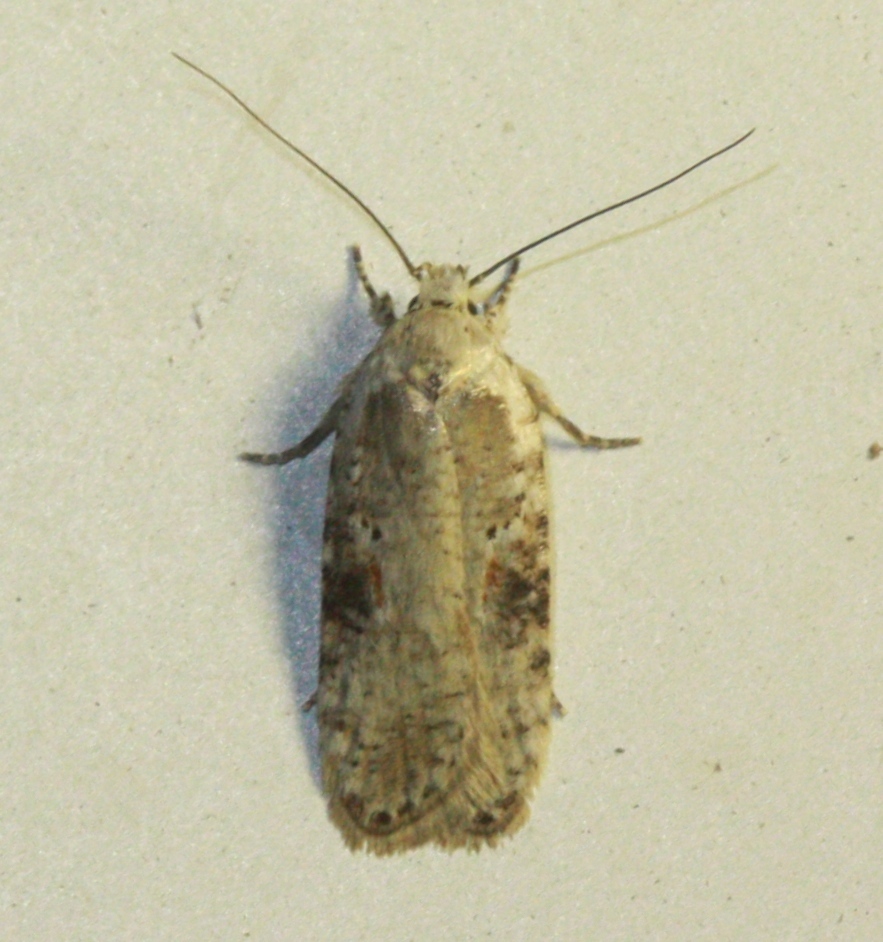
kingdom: Animalia
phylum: Arthropoda
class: Insecta
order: Lepidoptera
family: Depressariidae
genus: Agonopterix
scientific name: Agonopterix alstroemeriana
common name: Moth
